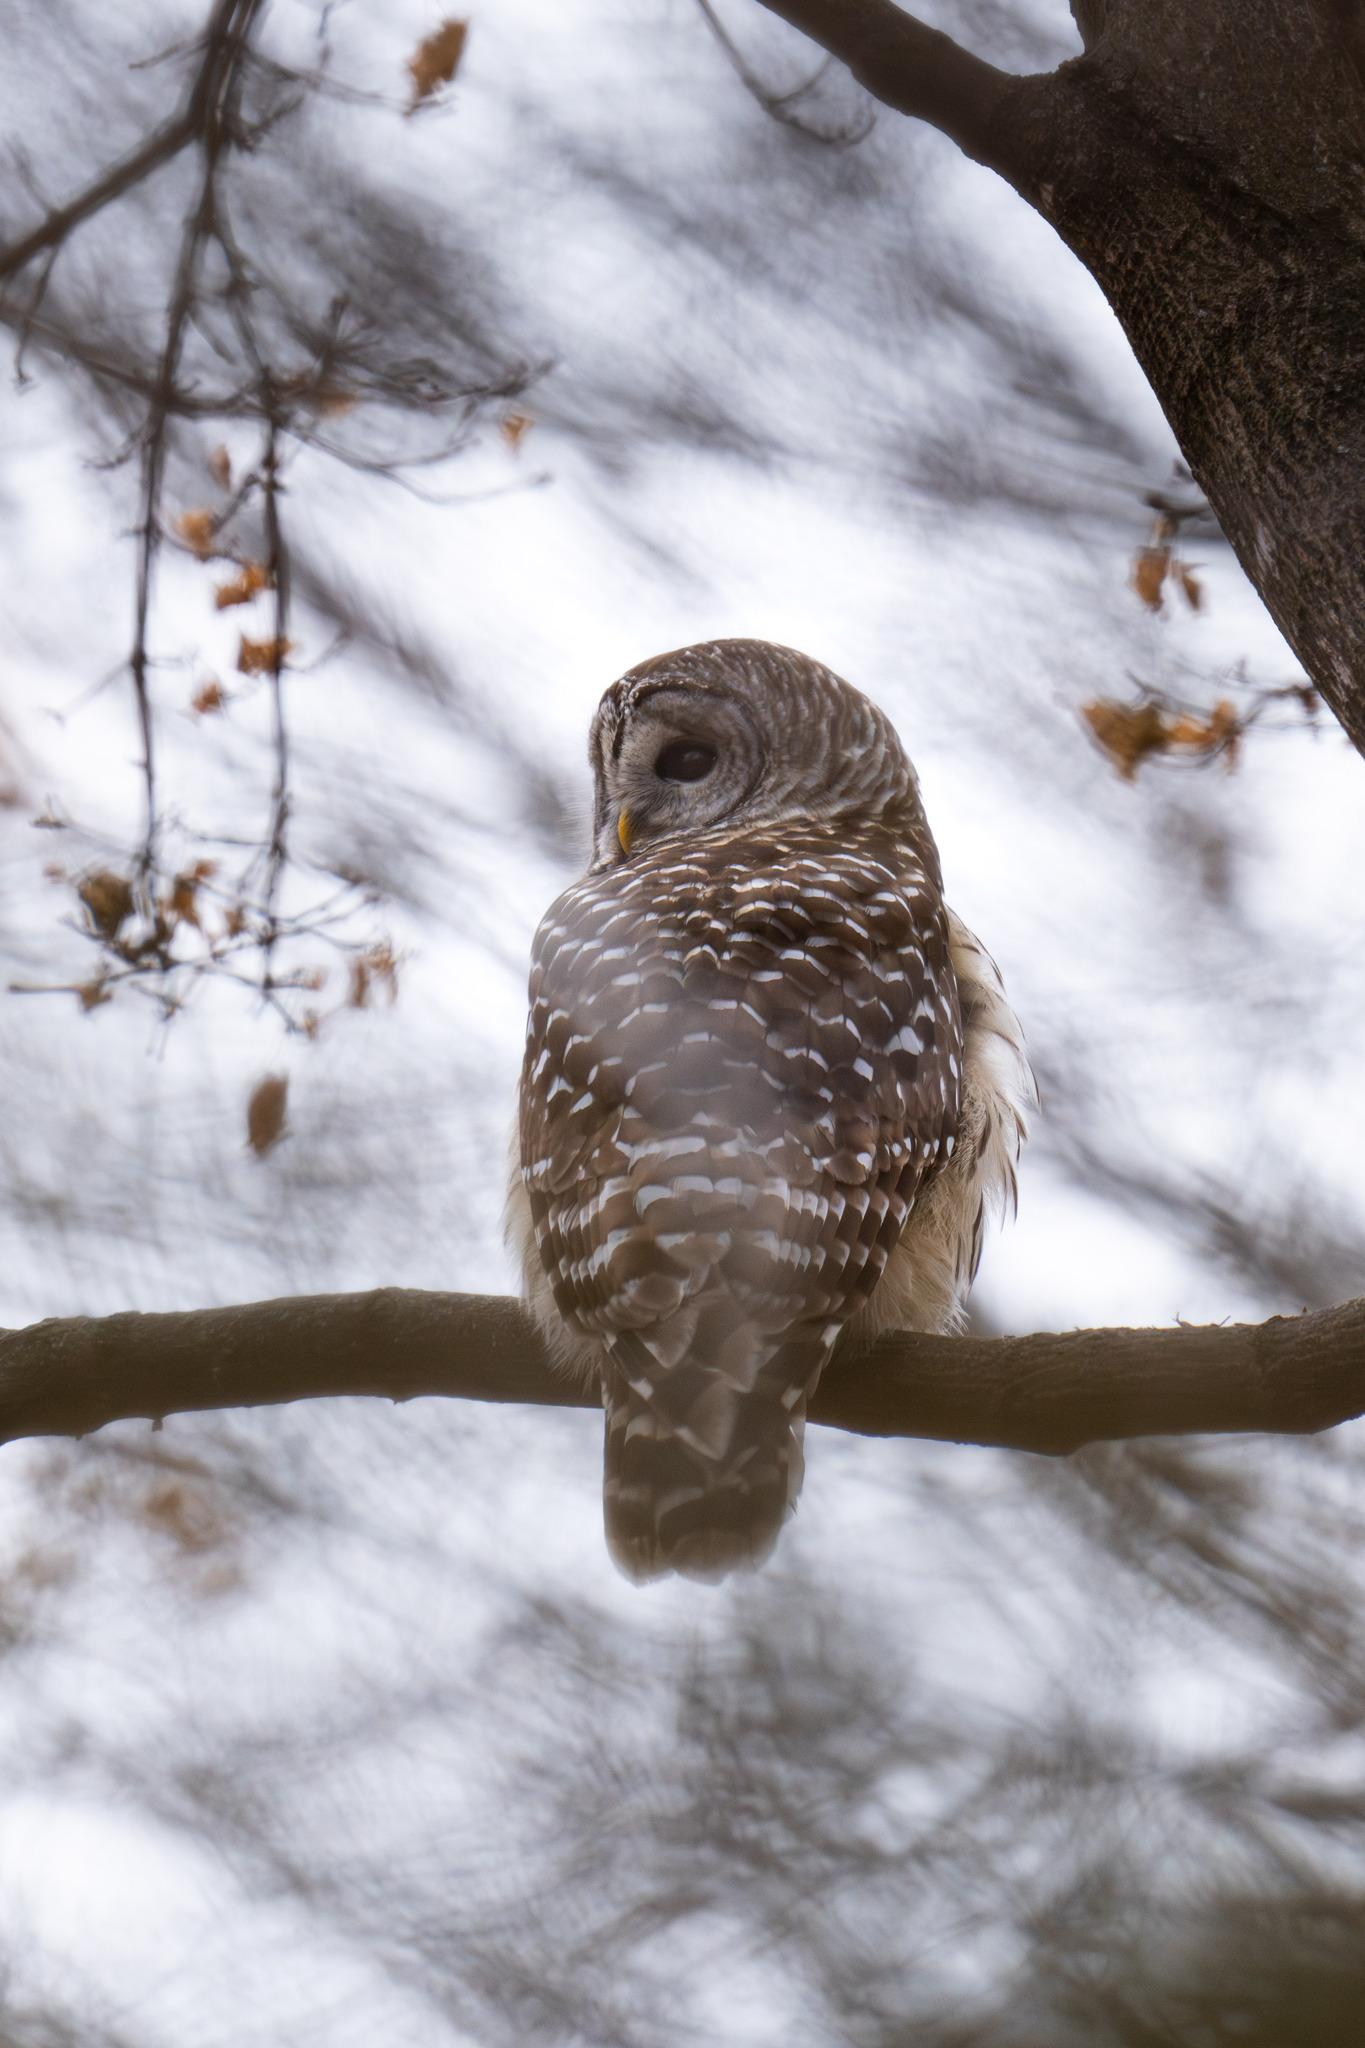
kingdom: Animalia
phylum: Chordata
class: Aves
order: Strigiformes
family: Strigidae
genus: Strix
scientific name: Strix varia
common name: Barred owl
